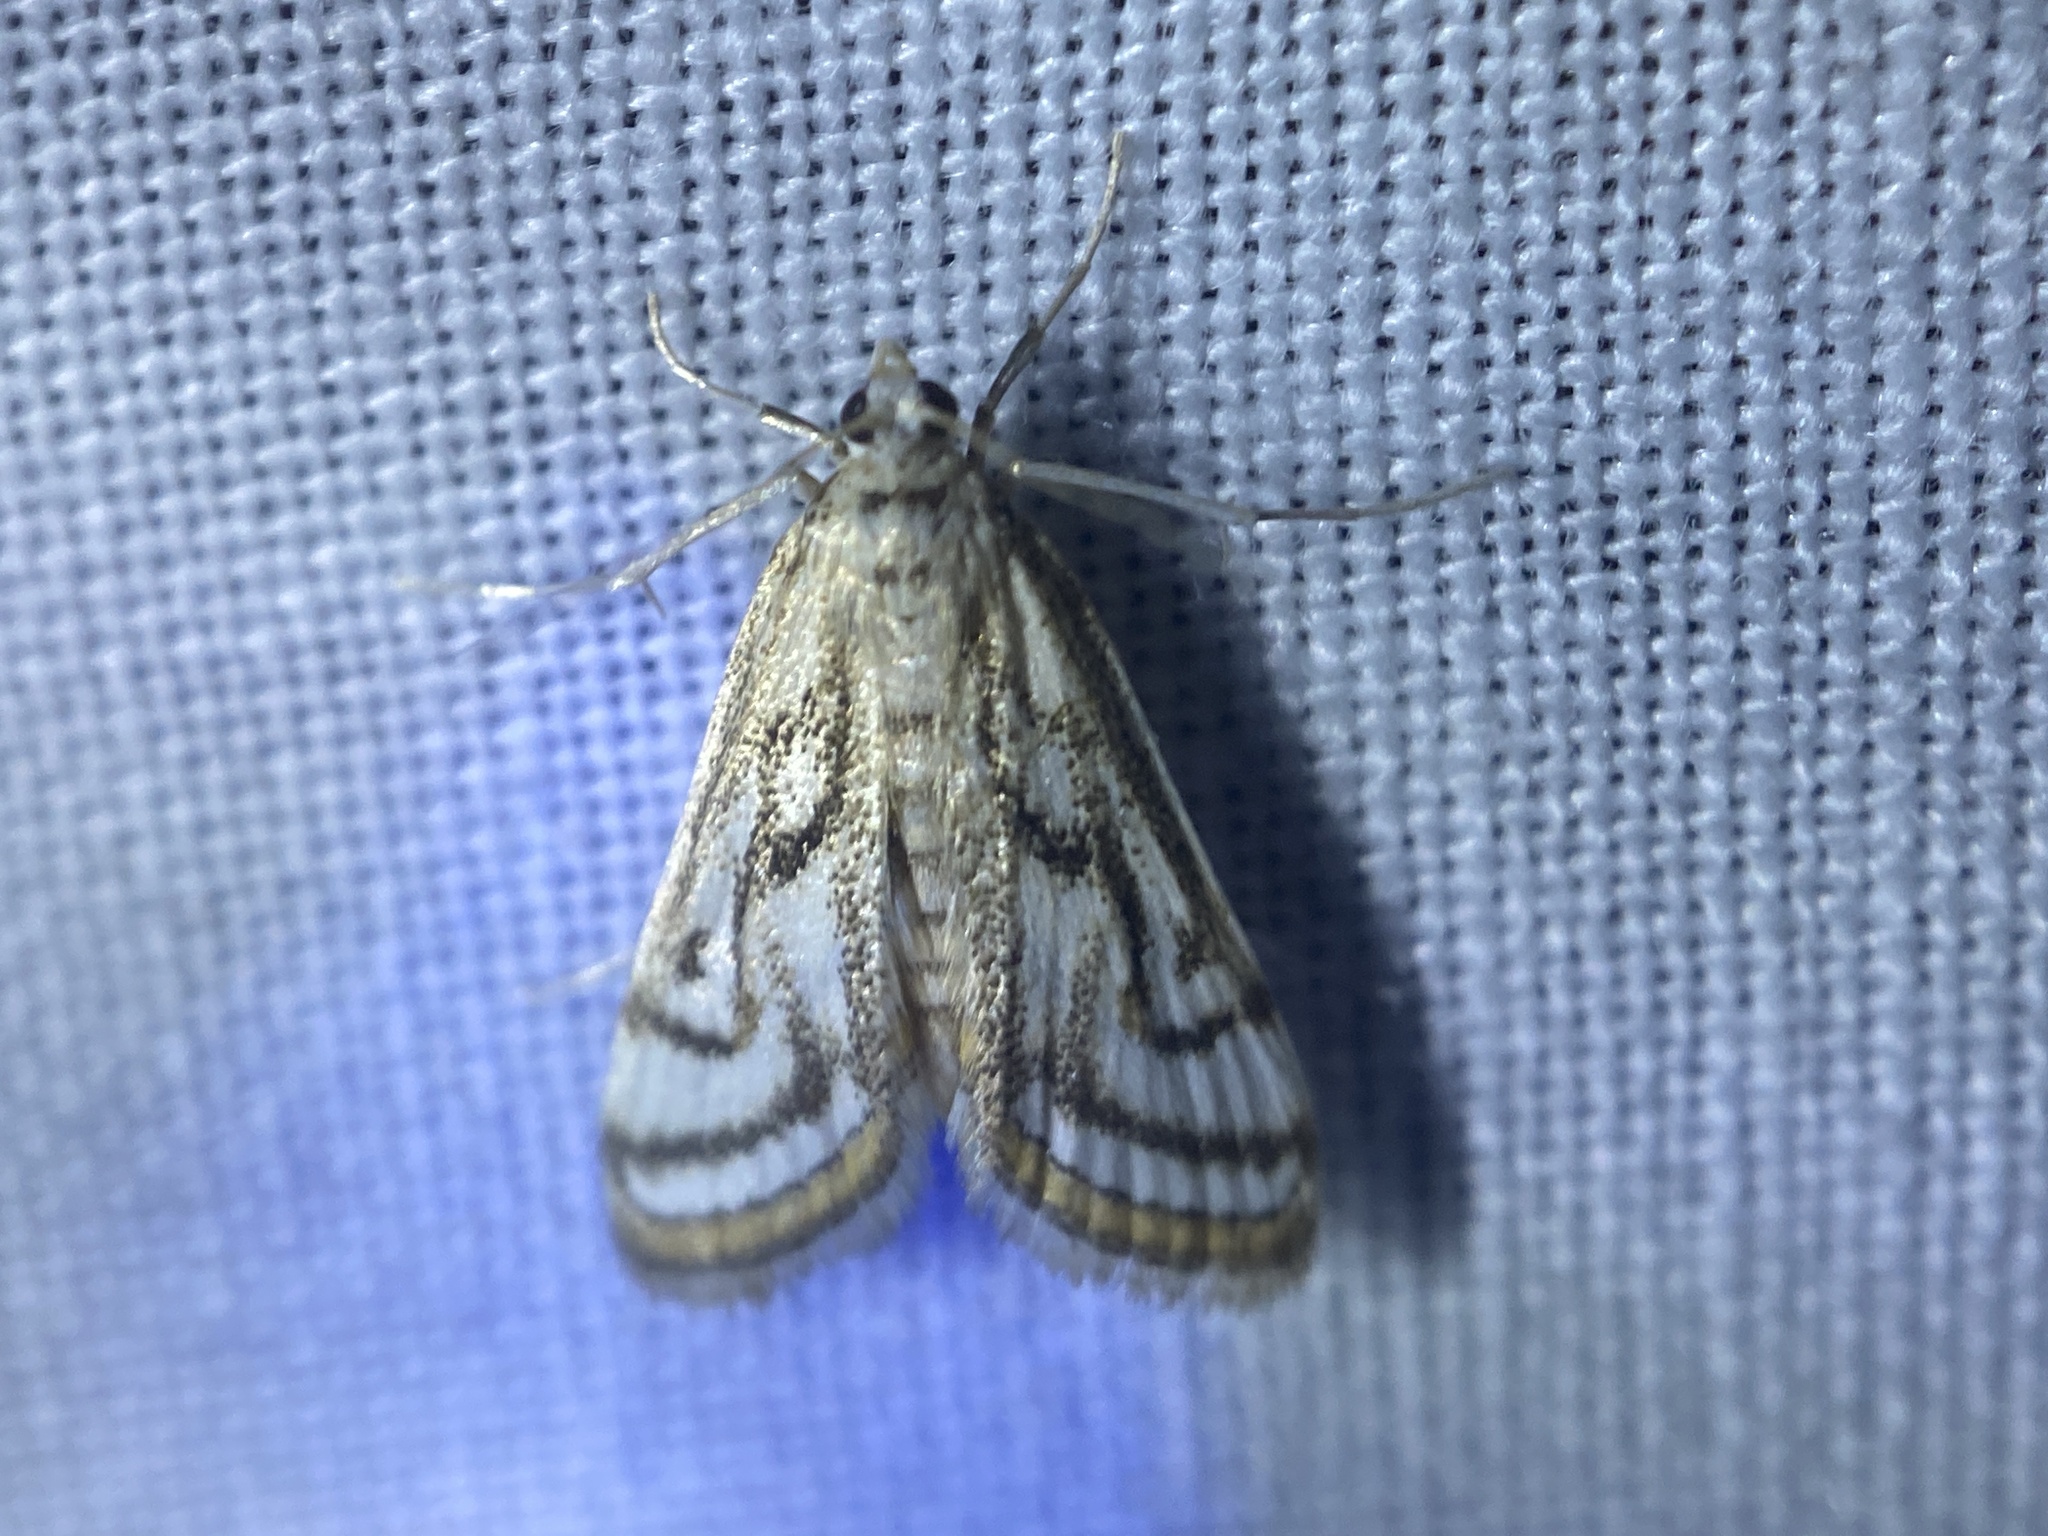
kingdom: Animalia
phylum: Arthropoda
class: Insecta
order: Lepidoptera
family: Crambidae
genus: Parapoynx
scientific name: Parapoynx badiusalis
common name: Chestnut-marked pondweed moth
